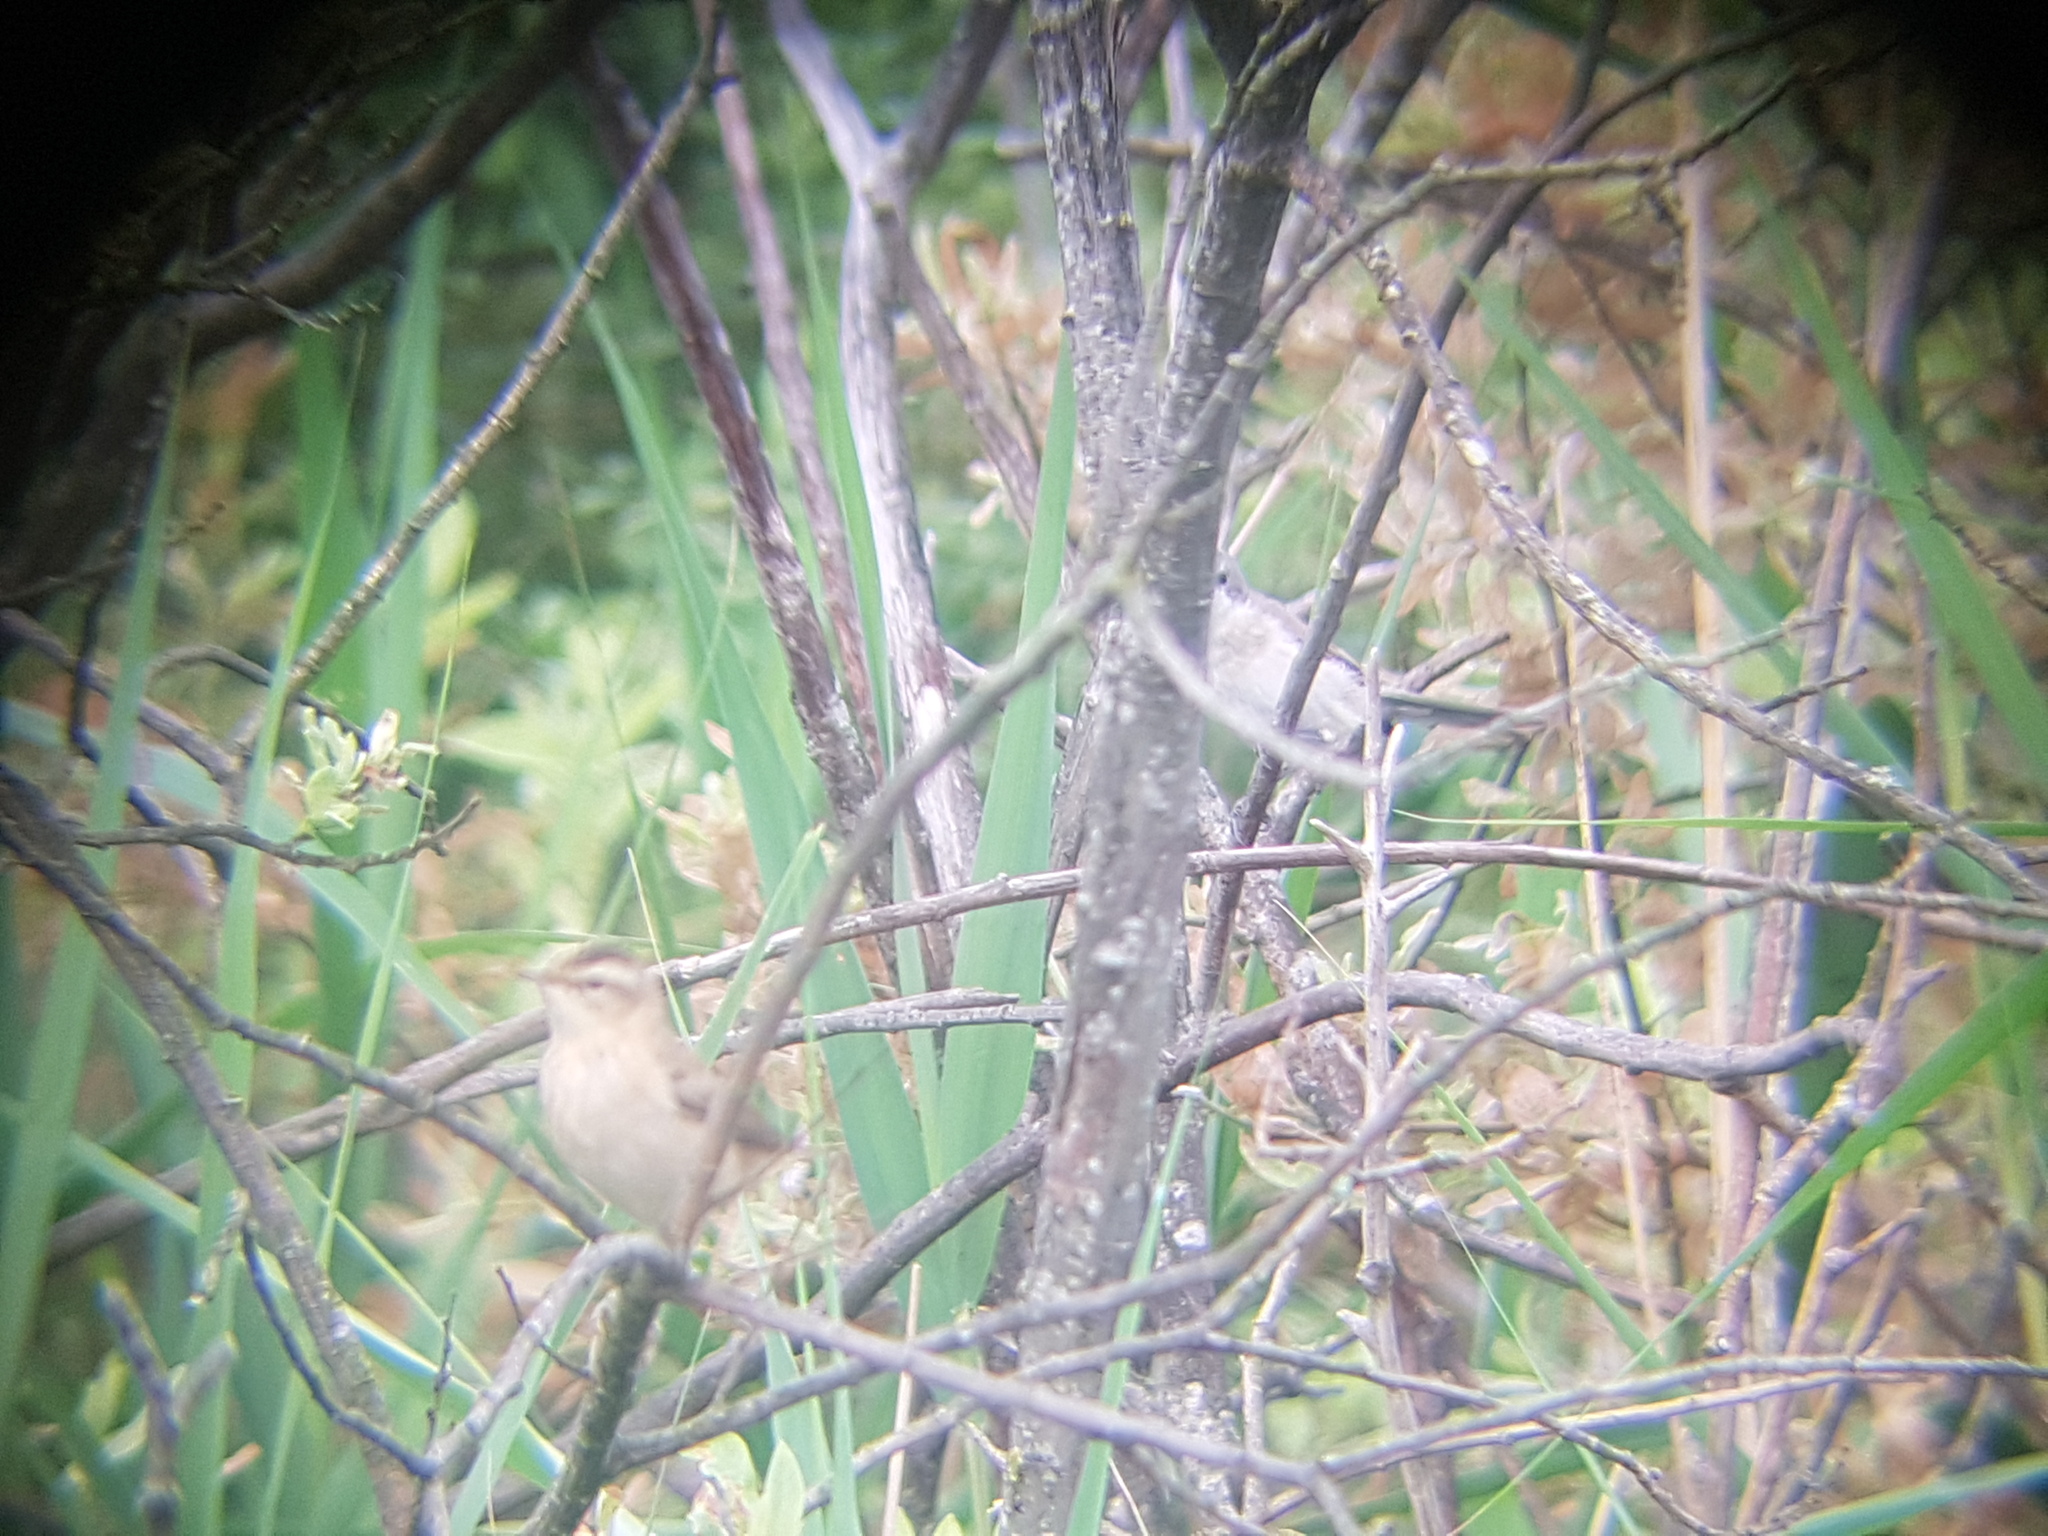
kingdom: Animalia
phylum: Chordata
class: Aves
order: Passeriformes
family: Acrocephalidae
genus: Acrocephalus
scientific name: Acrocephalus schoenobaenus
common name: Sedge warbler
